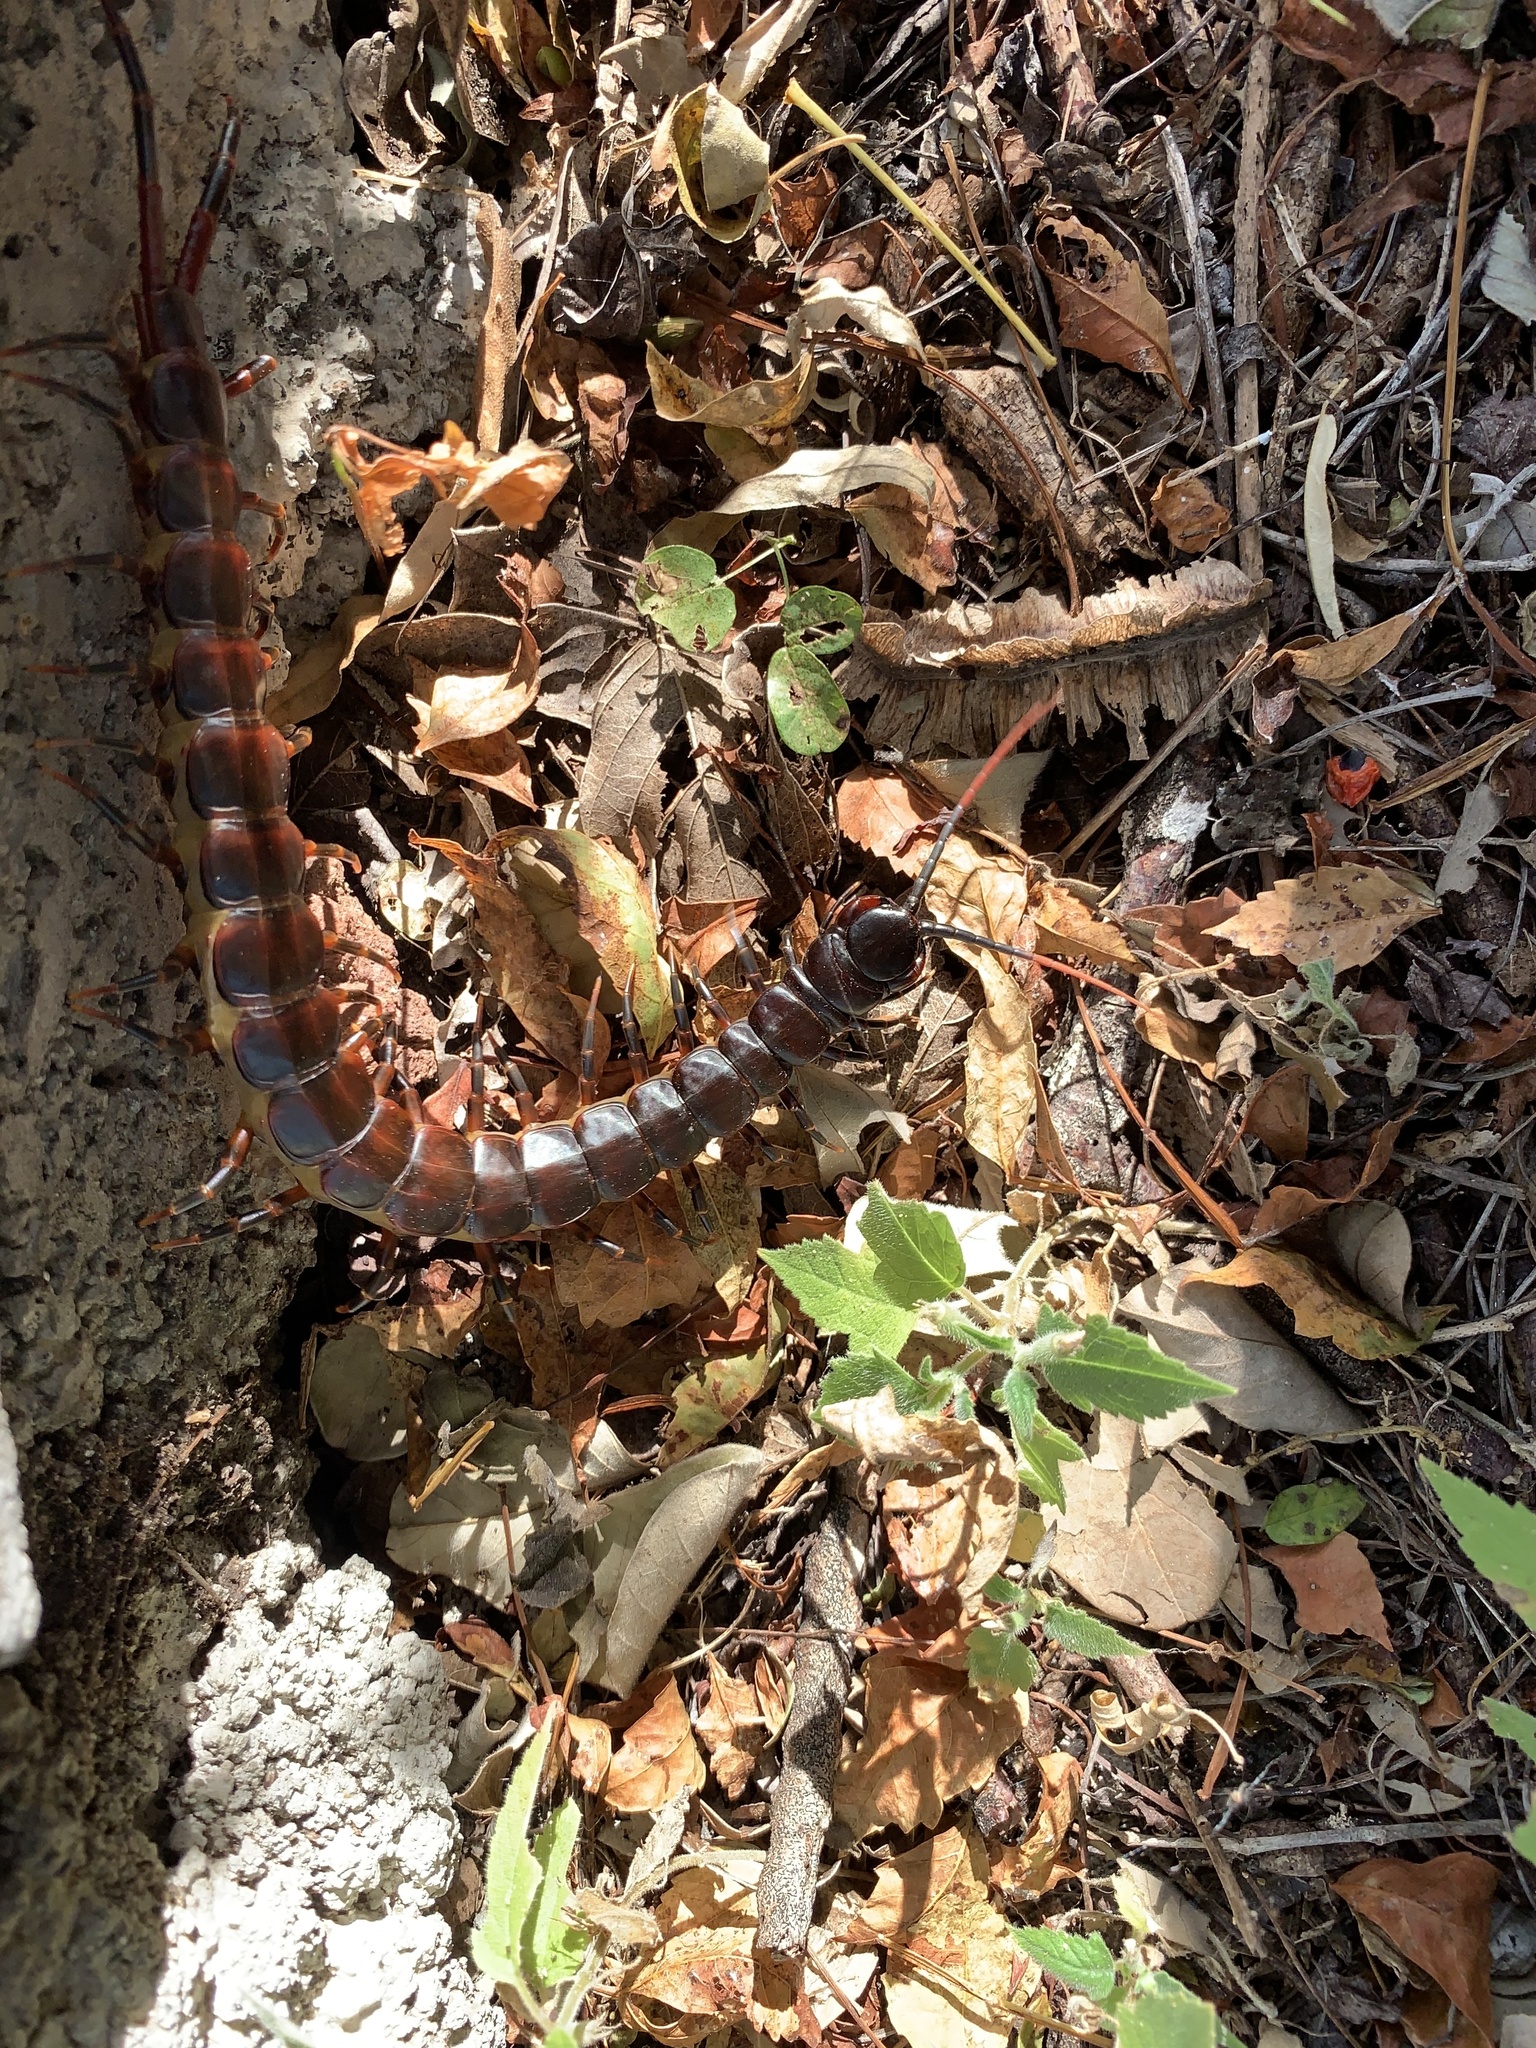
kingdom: Animalia
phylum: Arthropoda
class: Chilopoda
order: Scolopendromorpha
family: Scolopendridae
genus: Scolopendra
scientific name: Scolopendra galapagoensis
